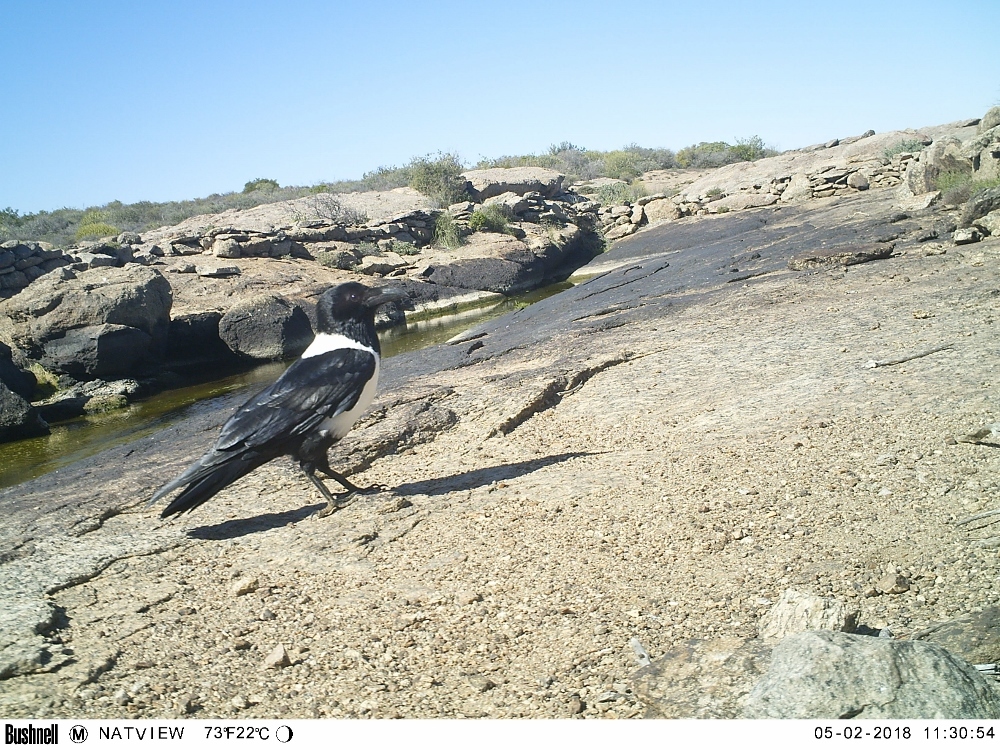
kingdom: Animalia
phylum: Chordata
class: Aves
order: Passeriformes
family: Corvidae
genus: Corvus
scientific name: Corvus albus
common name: Pied crow
